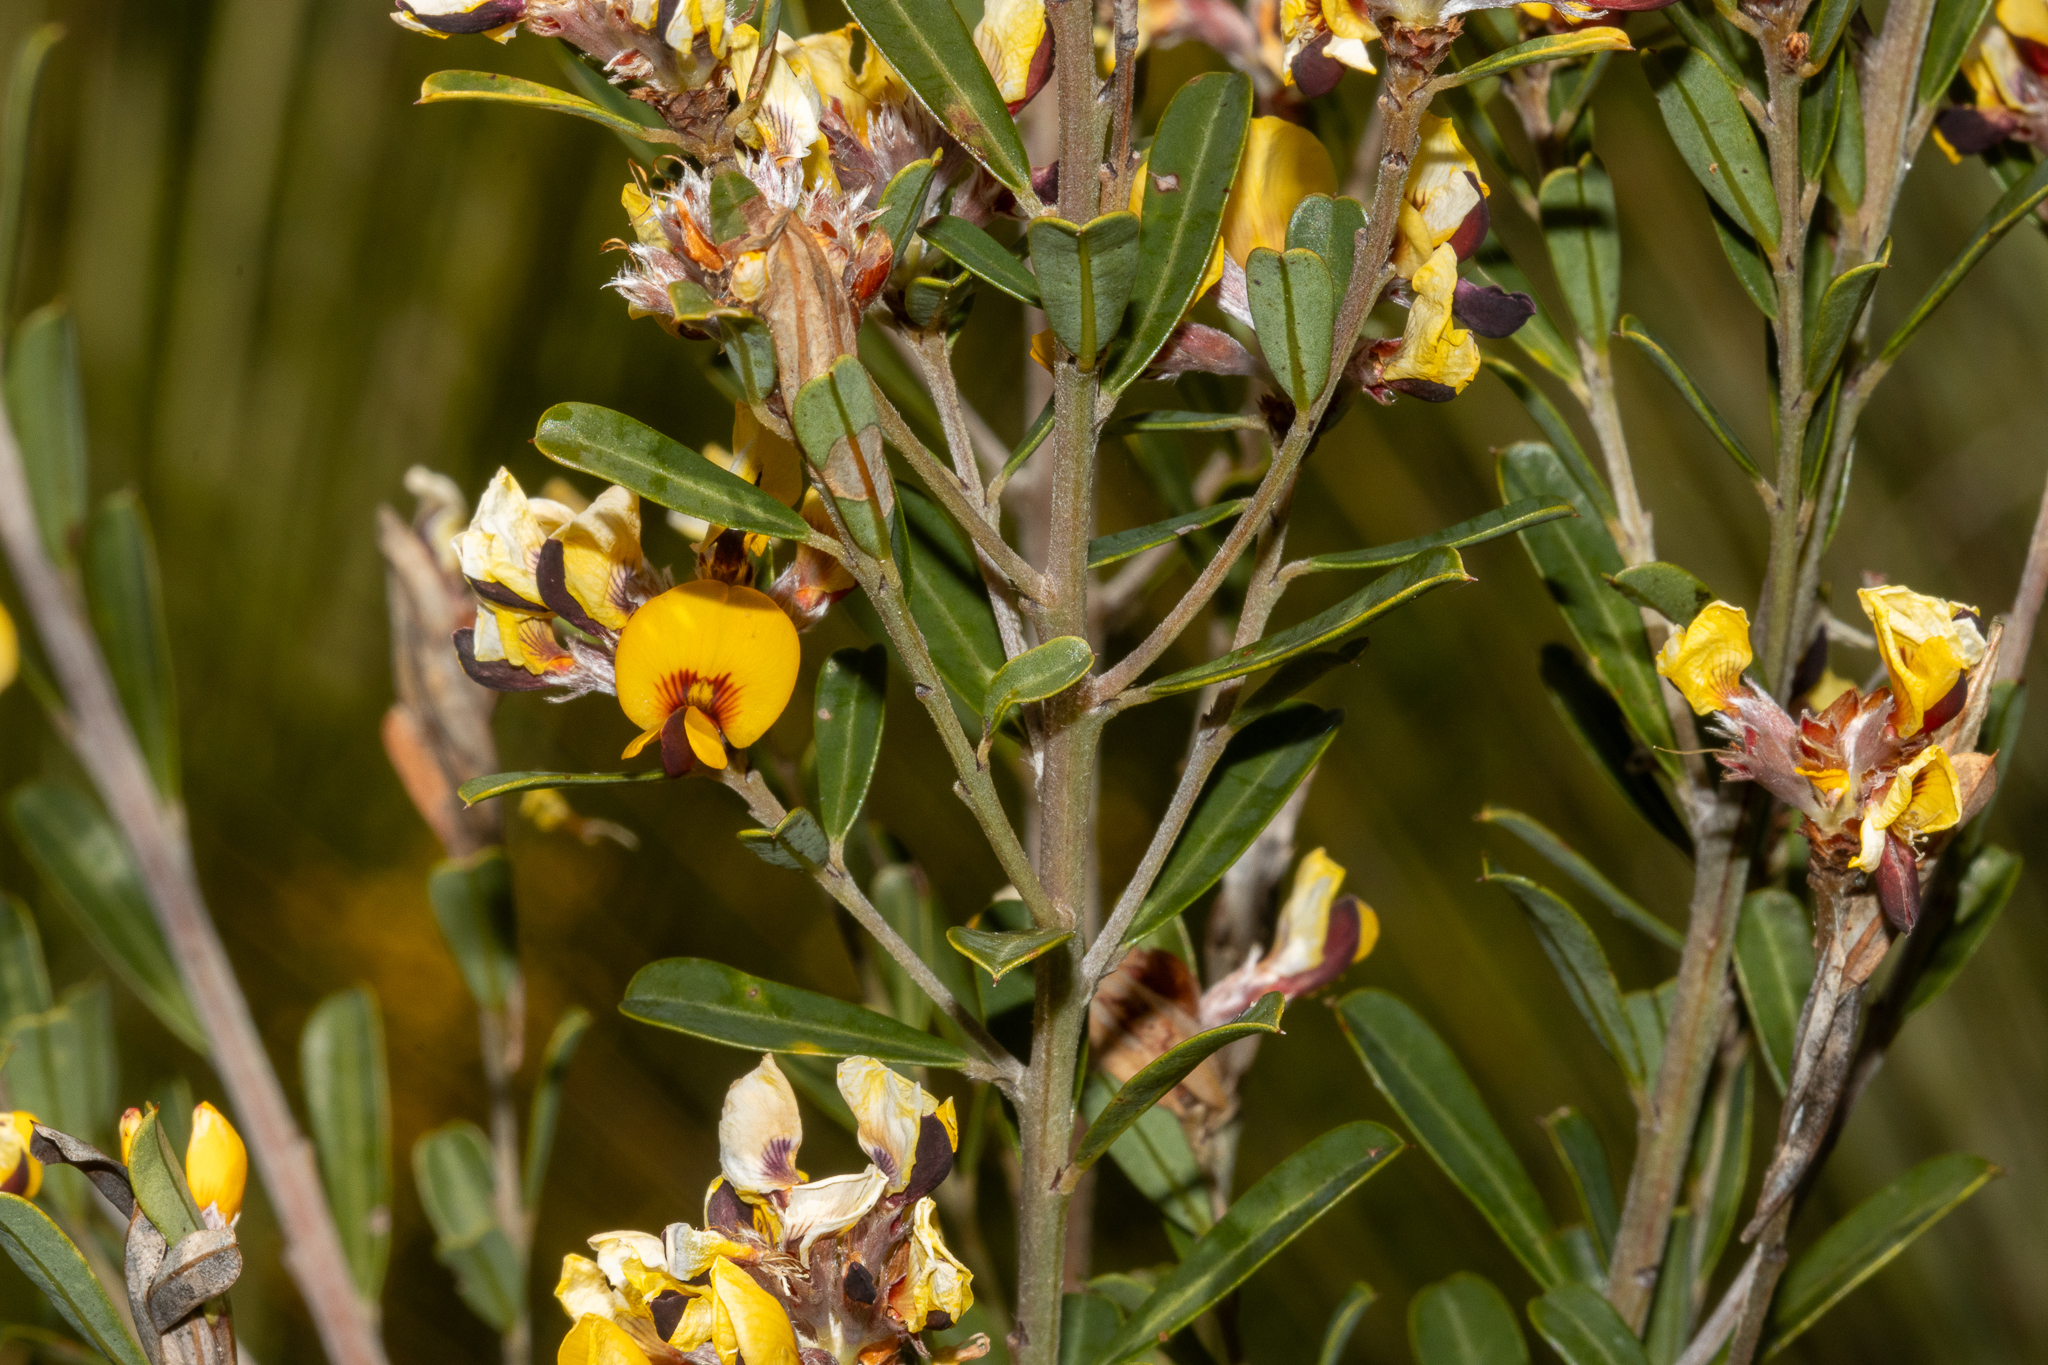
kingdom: Plantae
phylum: Tracheophyta
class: Magnoliopsida
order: Fabales
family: Fabaceae
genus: Pultenaea
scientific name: Pultenaea daphnoides
